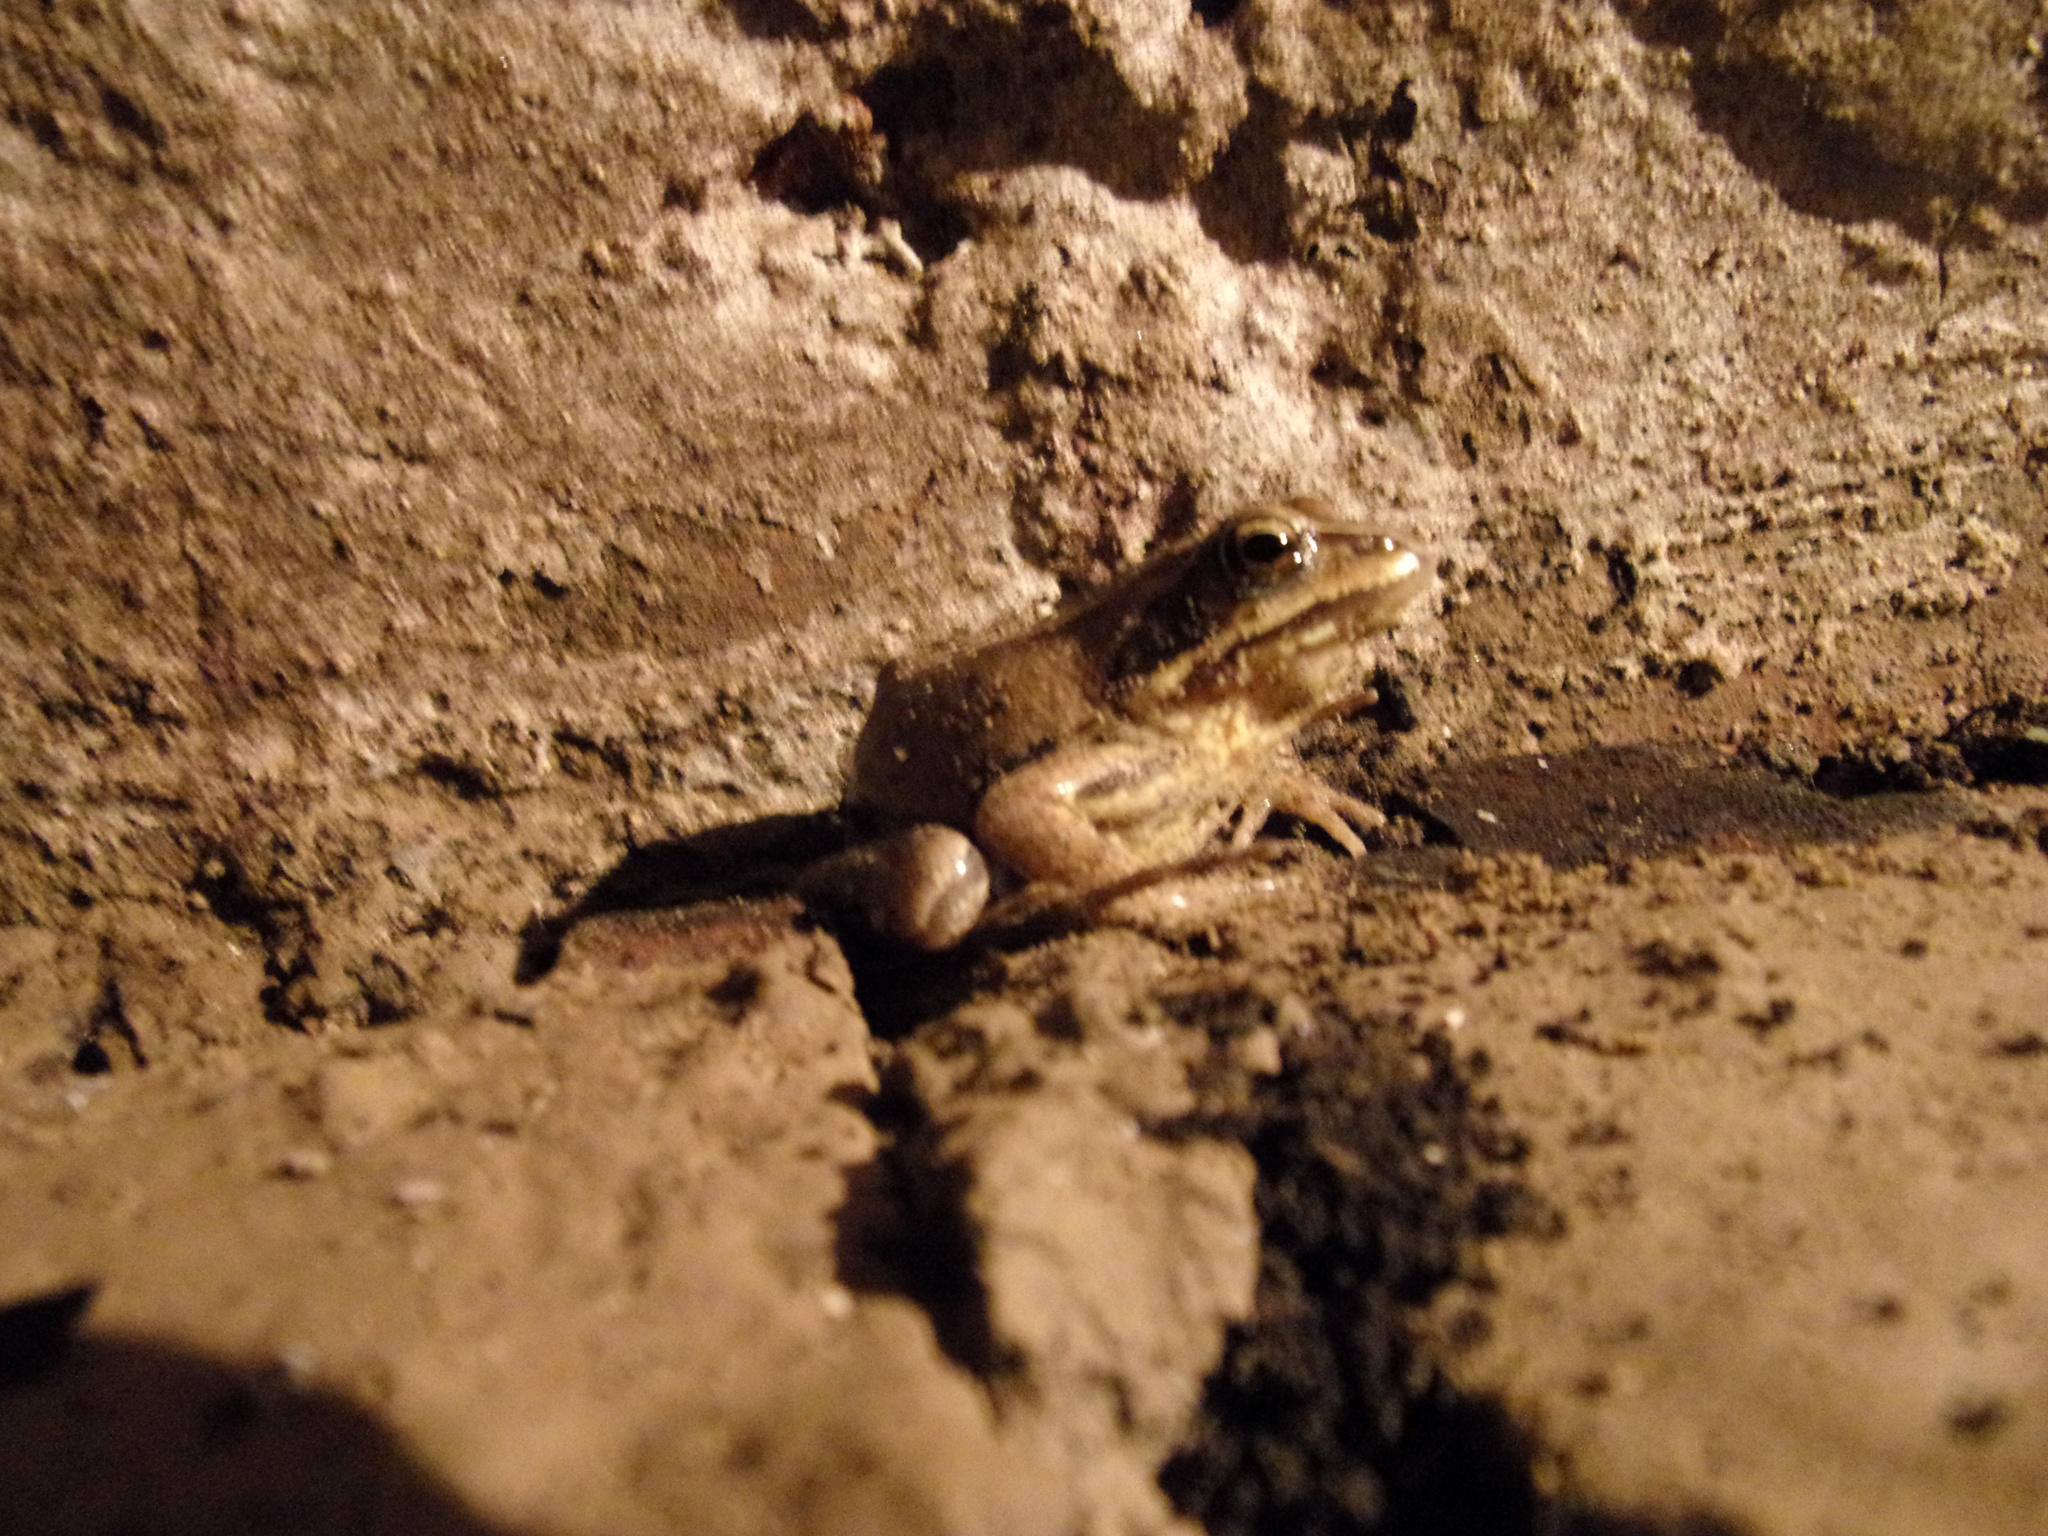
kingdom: Animalia
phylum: Chordata
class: Amphibia
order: Anura
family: Ranidae
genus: Rana
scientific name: Rana arvalis
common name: Moor frog
